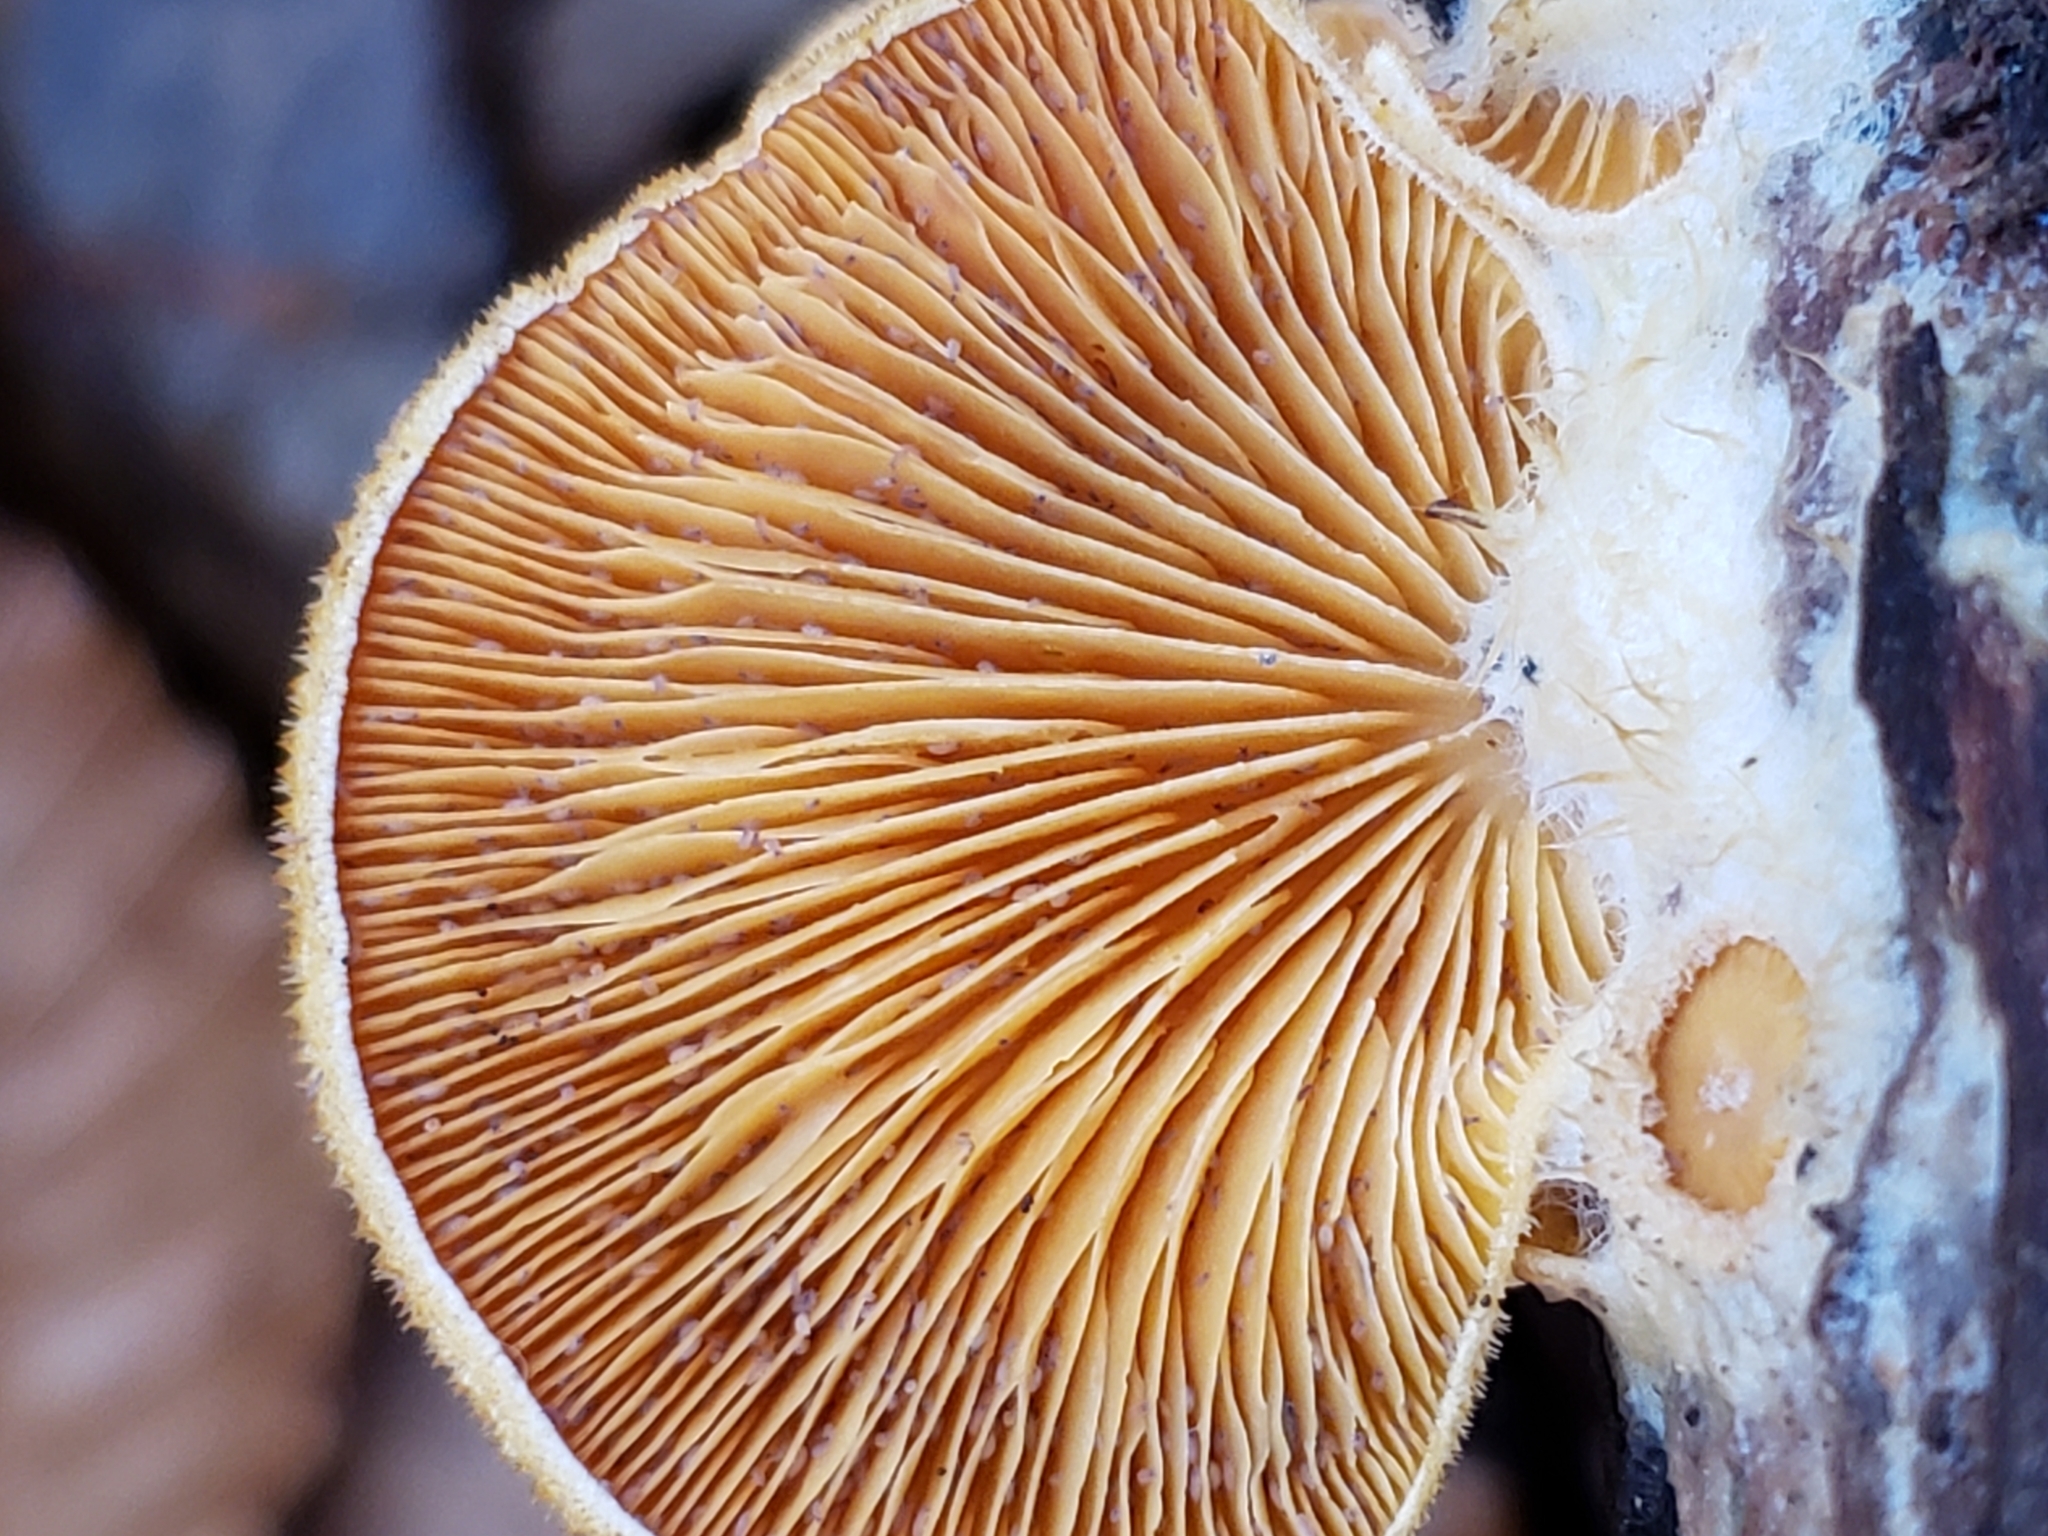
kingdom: Fungi
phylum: Basidiomycota
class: Agaricomycetes
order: Agaricales
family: Phyllotopsidaceae
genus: Phyllotopsis
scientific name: Phyllotopsis nidulans
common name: Orange mock oyster
